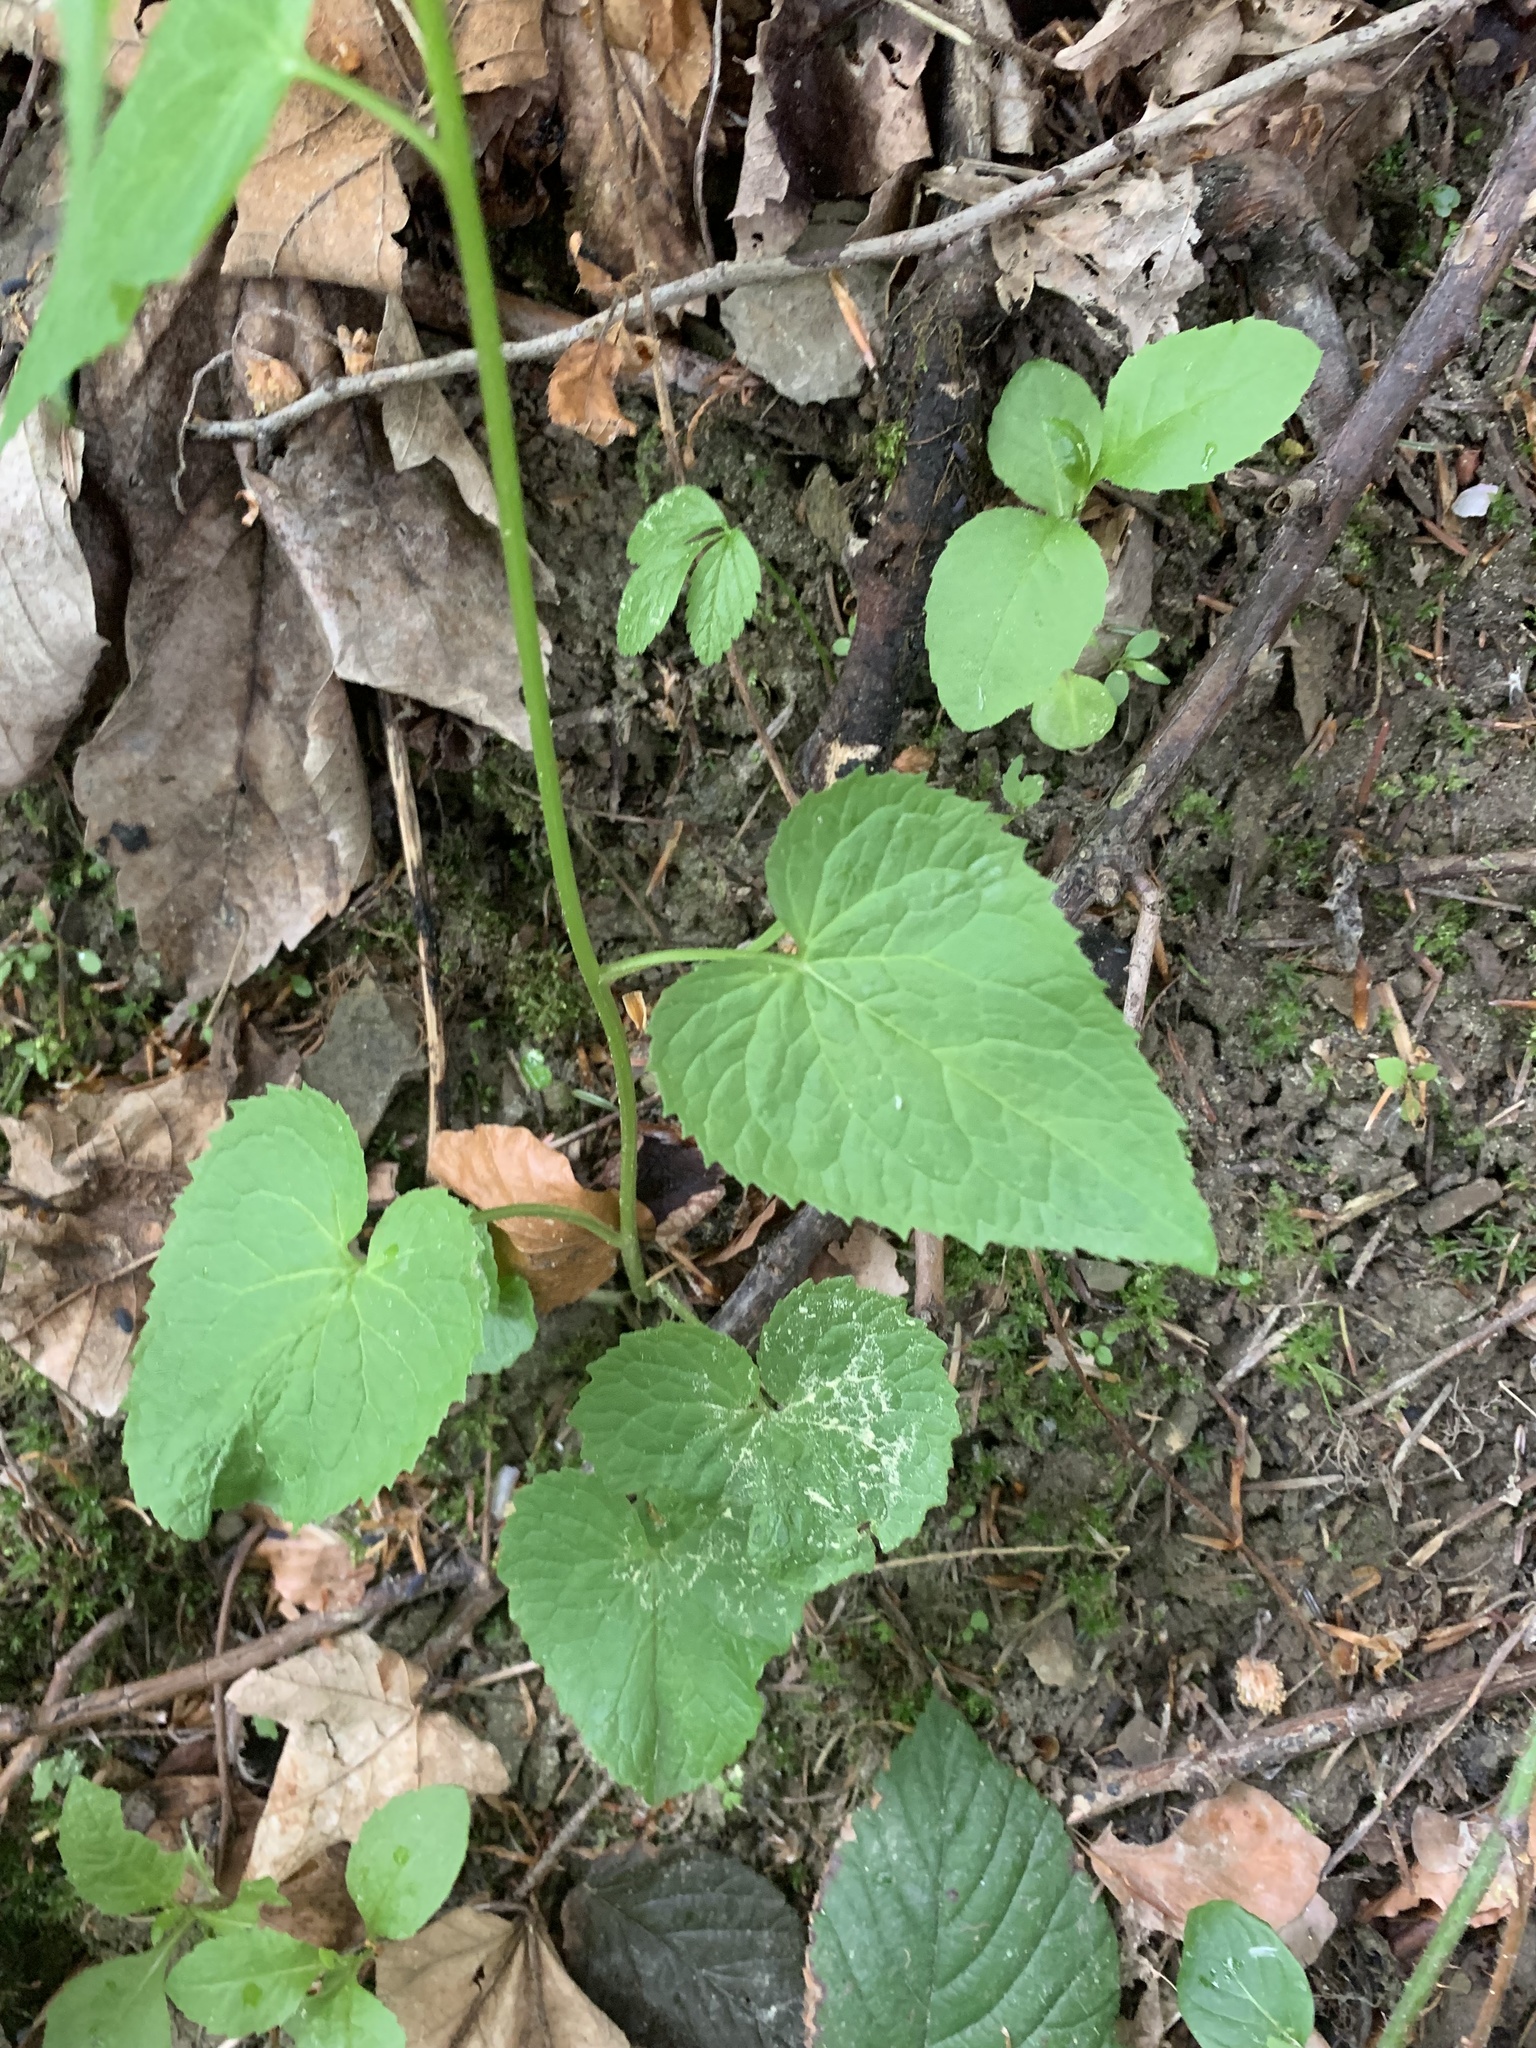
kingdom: Plantae
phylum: Tracheophyta
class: Magnoliopsida
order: Asterales
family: Campanulaceae
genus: Phyteuma
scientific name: Phyteuma spicatum
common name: Spiked rampion
